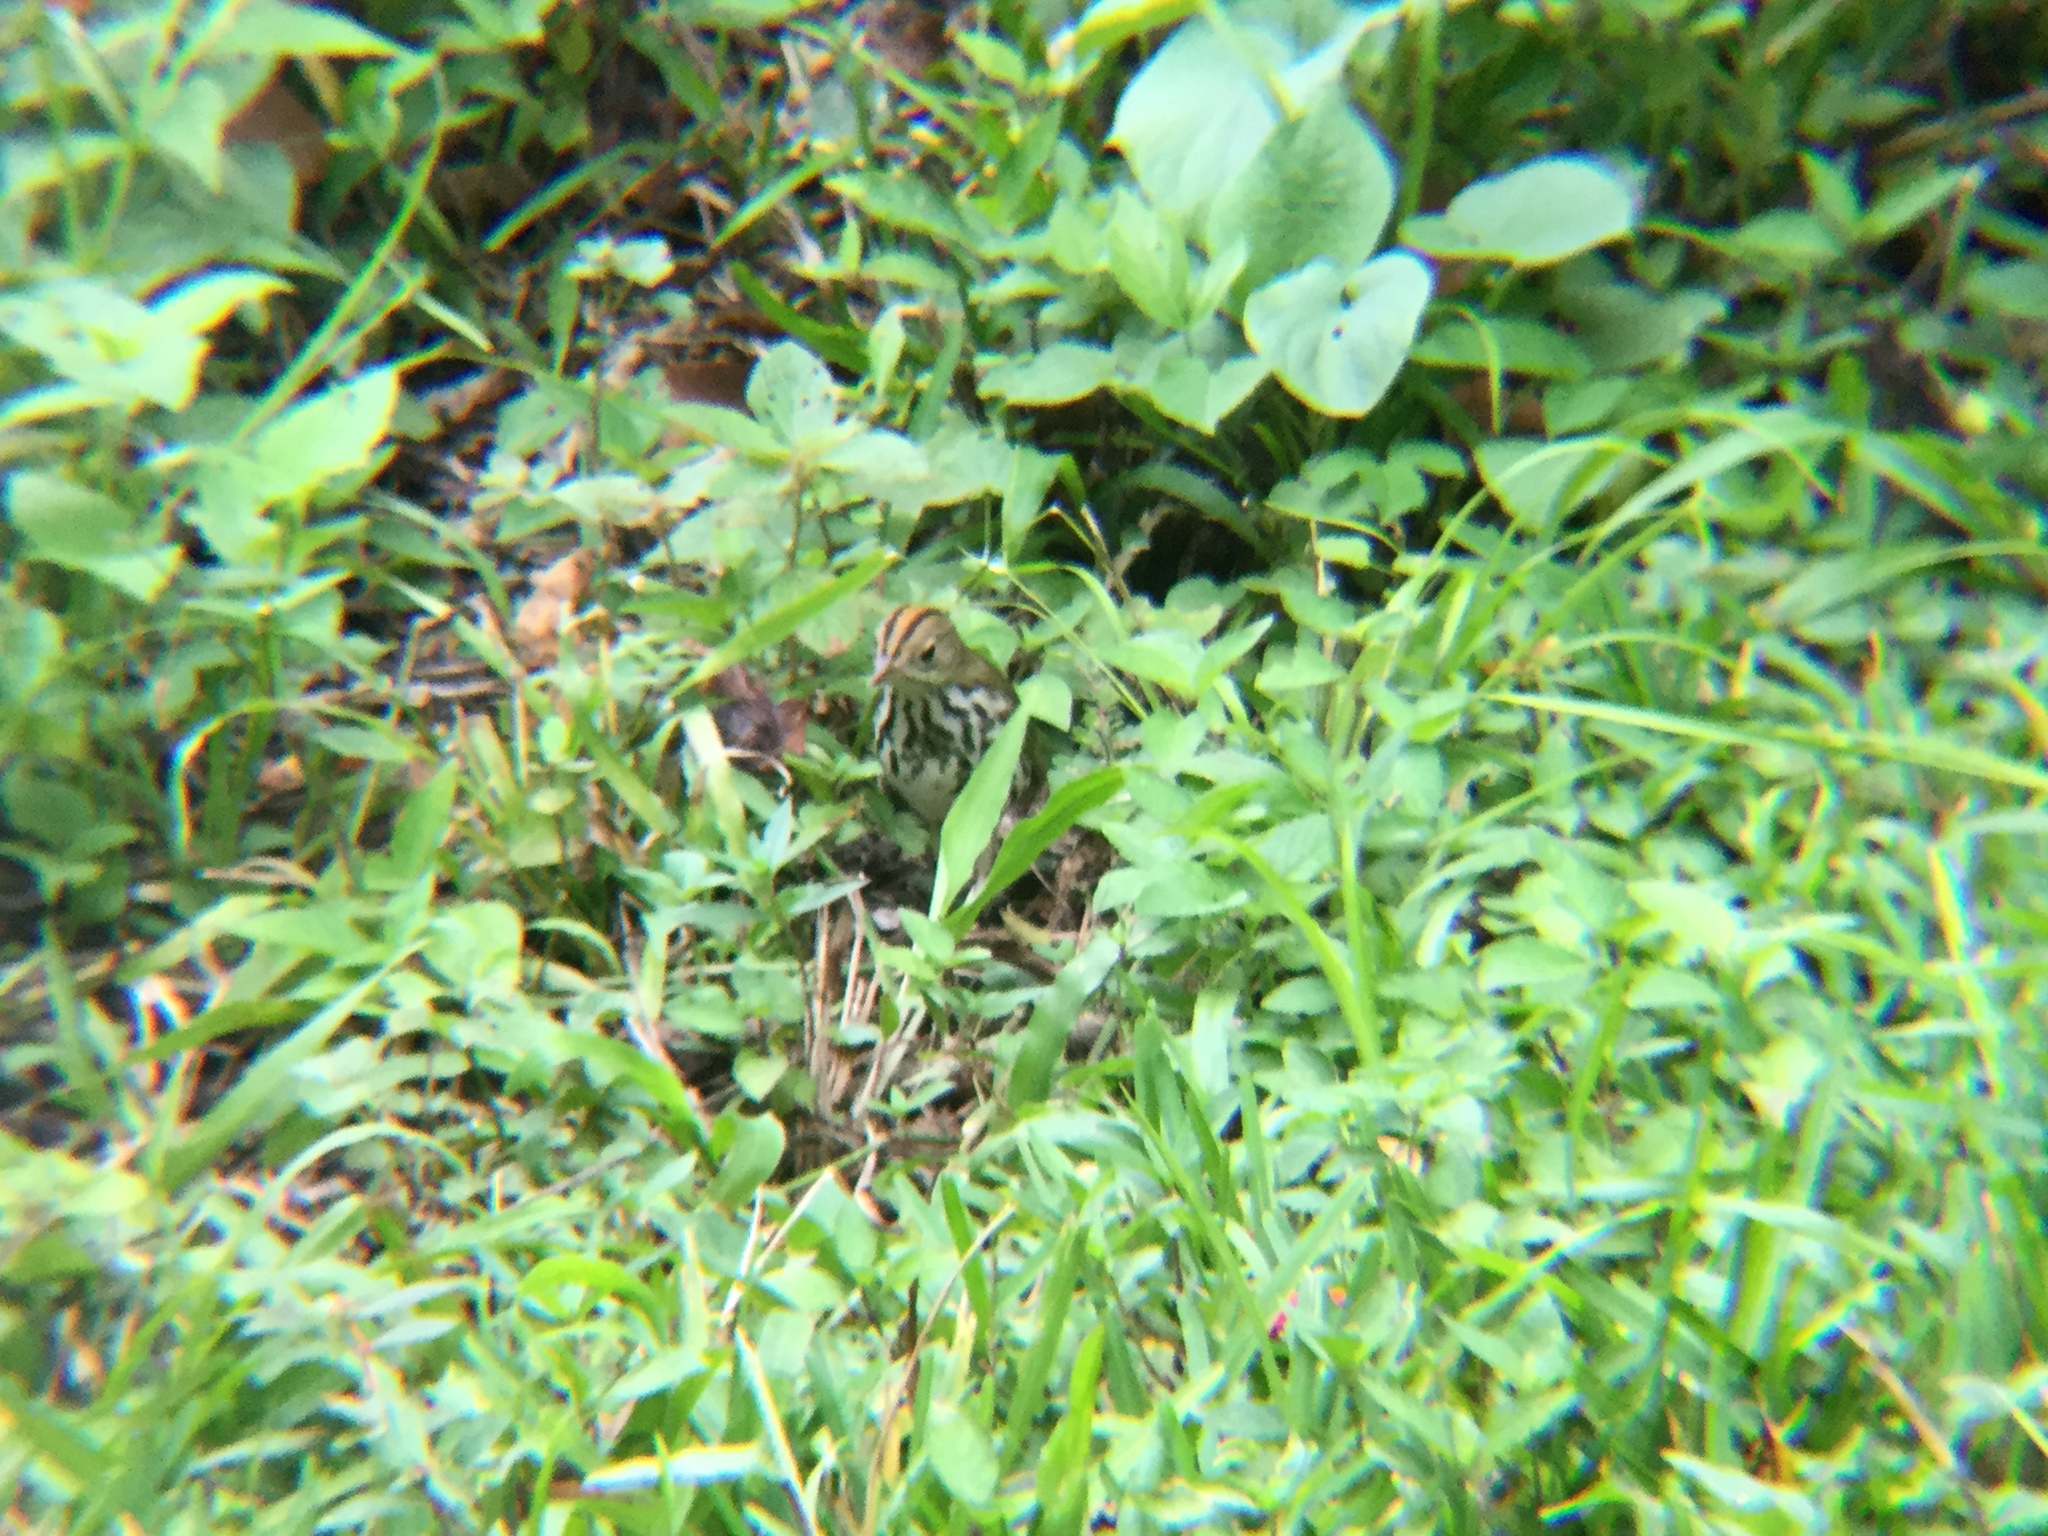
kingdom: Animalia
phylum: Chordata
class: Aves
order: Passeriformes
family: Parulidae
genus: Seiurus
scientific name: Seiurus aurocapilla
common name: Ovenbird
